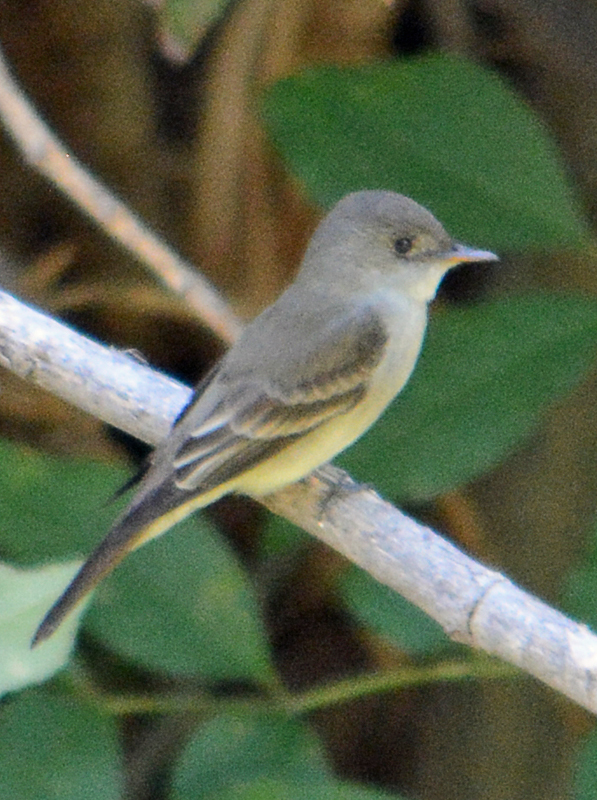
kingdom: Animalia
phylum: Chordata
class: Aves
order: Passeriformes
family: Tyrannidae
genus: Contopus
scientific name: Contopus sordidulus
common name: Western wood-pewee
